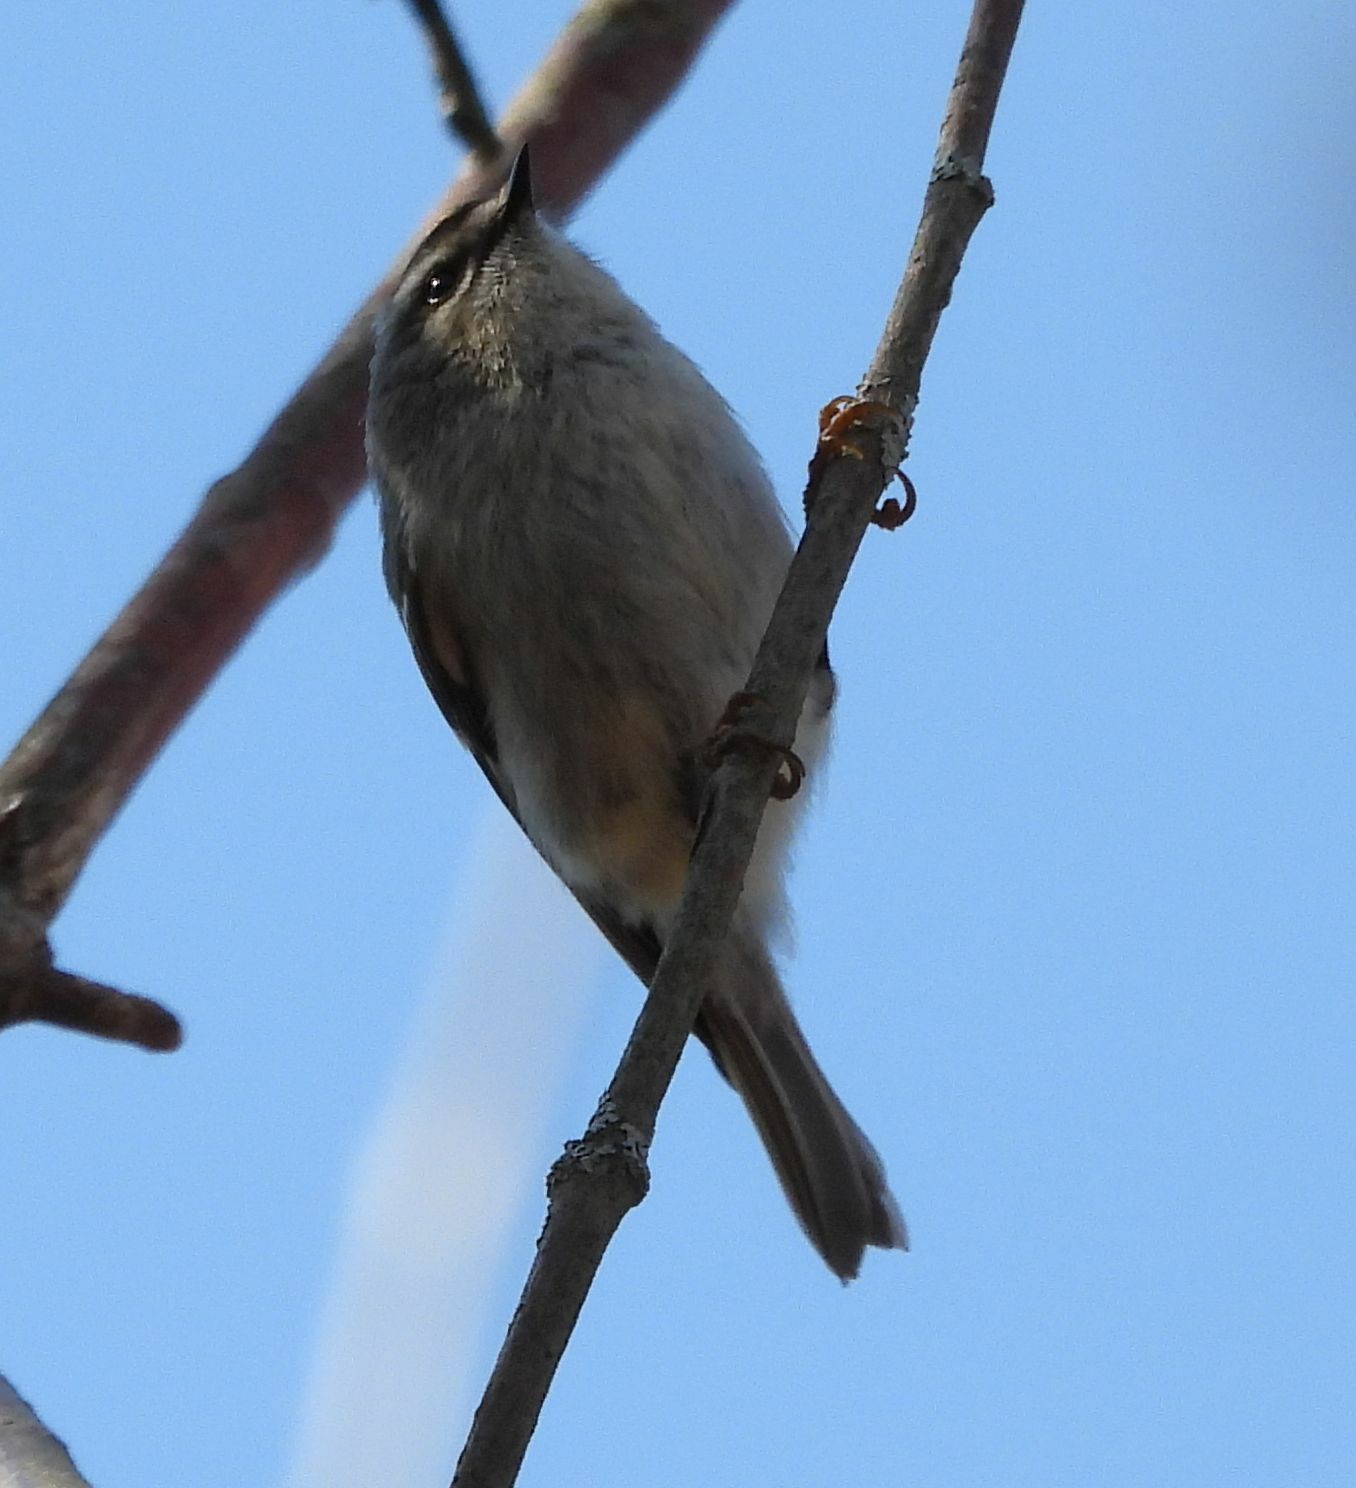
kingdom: Animalia
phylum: Chordata
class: Aves
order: Passeriformes
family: Regulidae
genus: Regulus
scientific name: Regulus satrapa
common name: Golden-crowned kinglet
